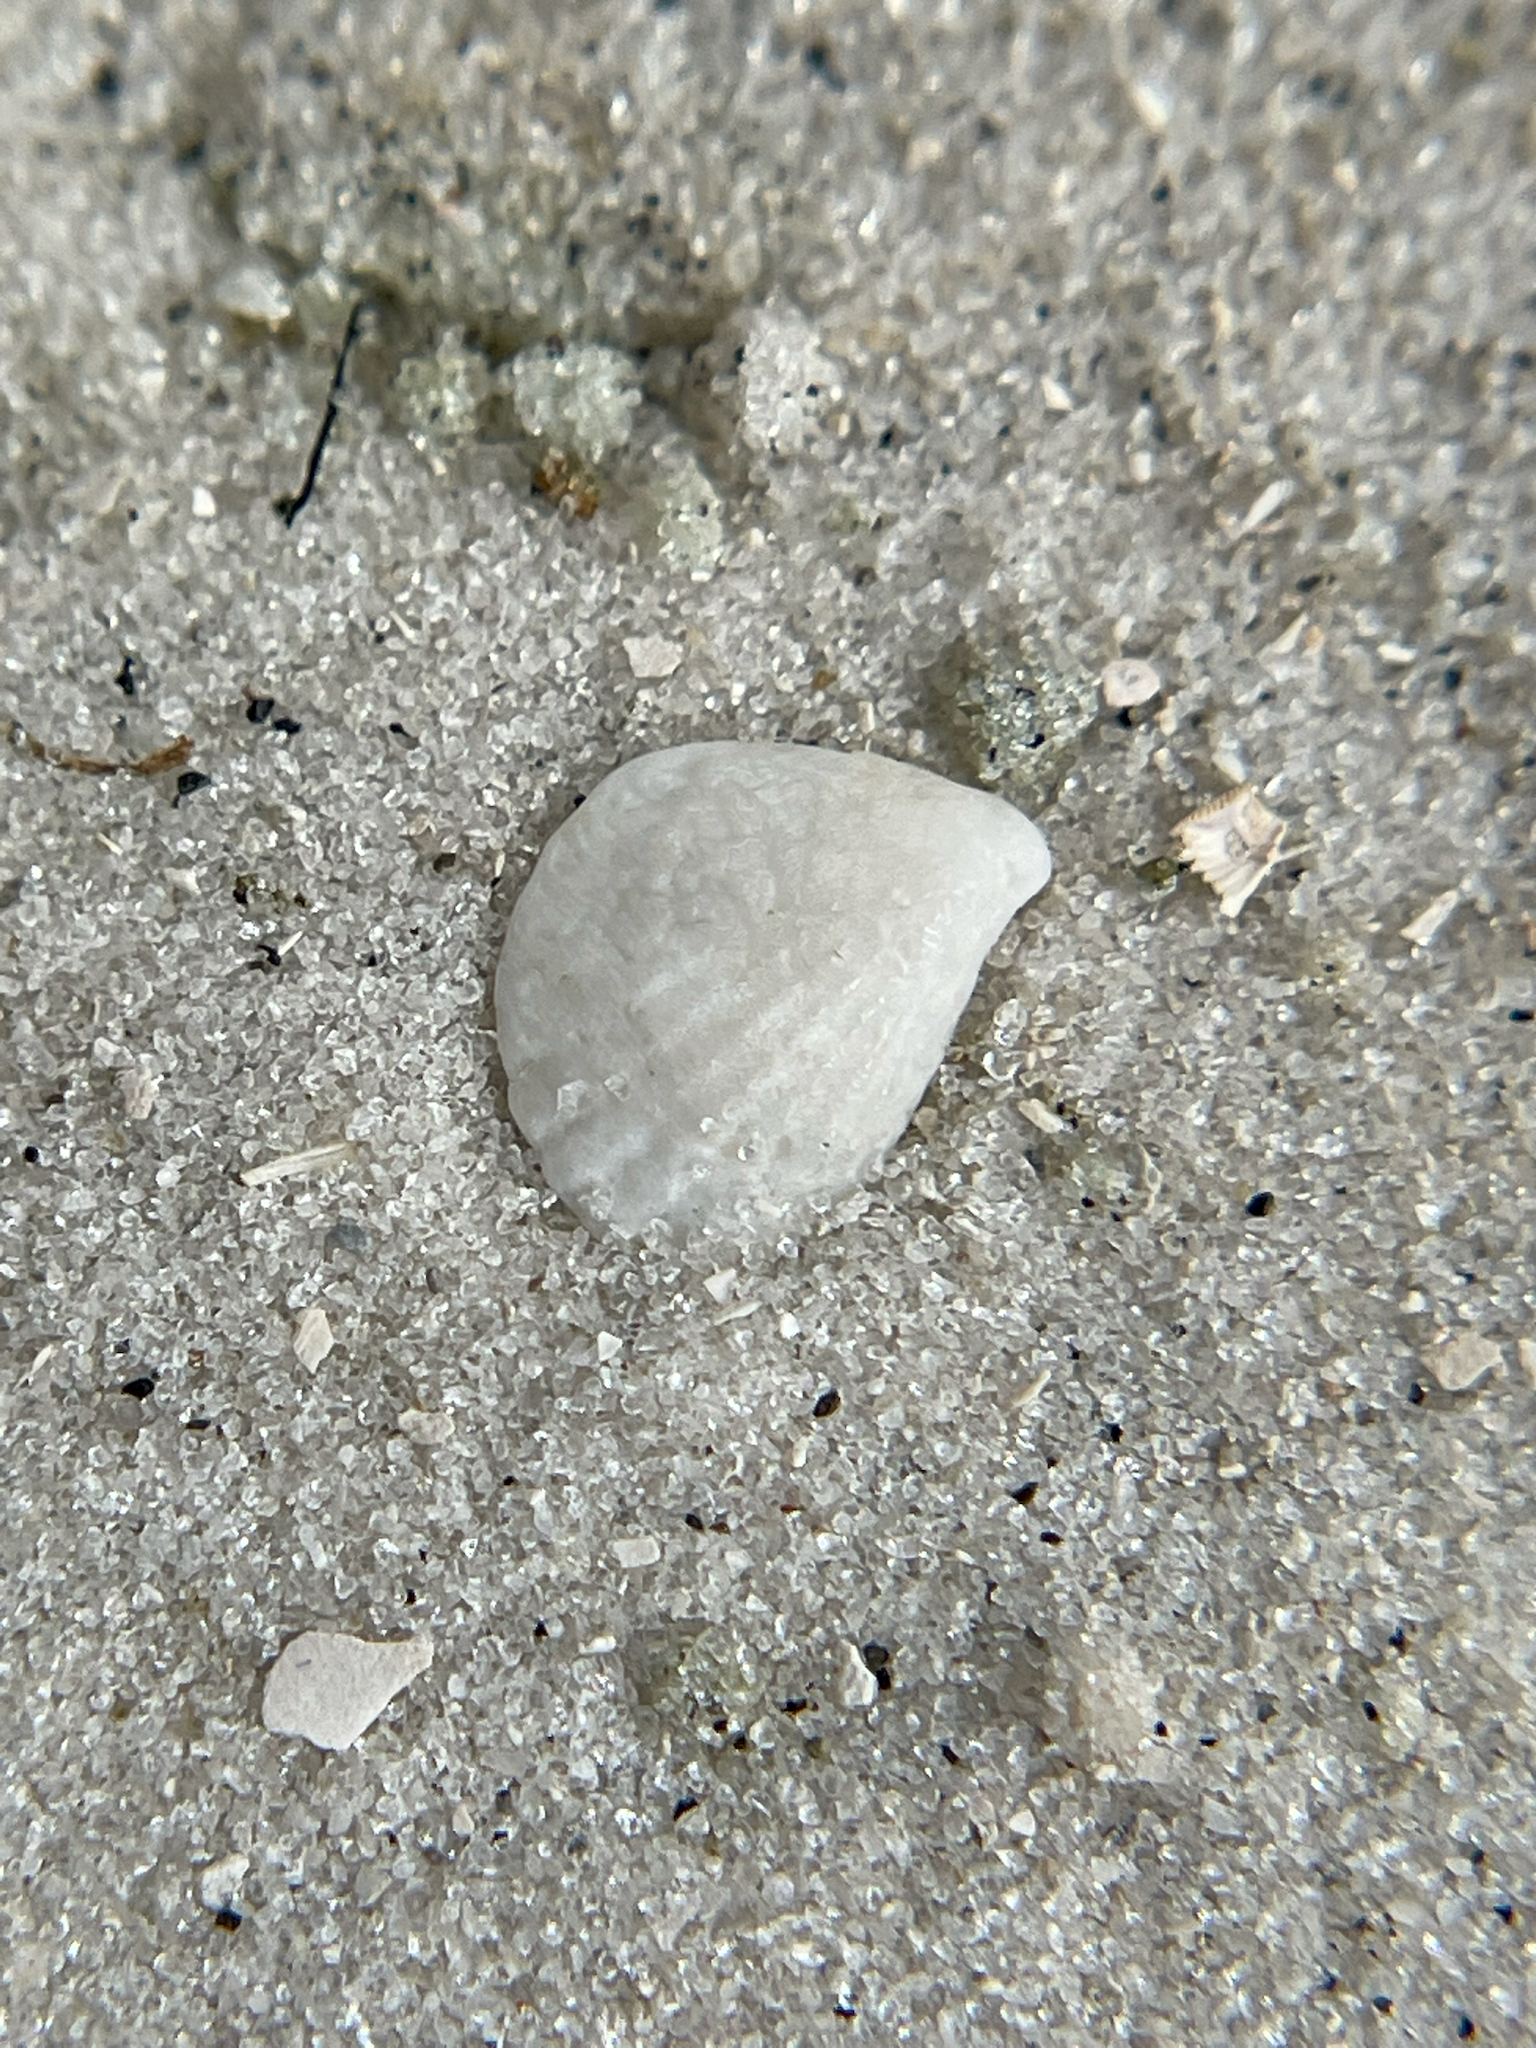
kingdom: Animalia
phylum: Mollusca
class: Bivalvia
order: Carditida
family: Carditidae
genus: Pteromeris
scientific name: Pteromeris perplana
